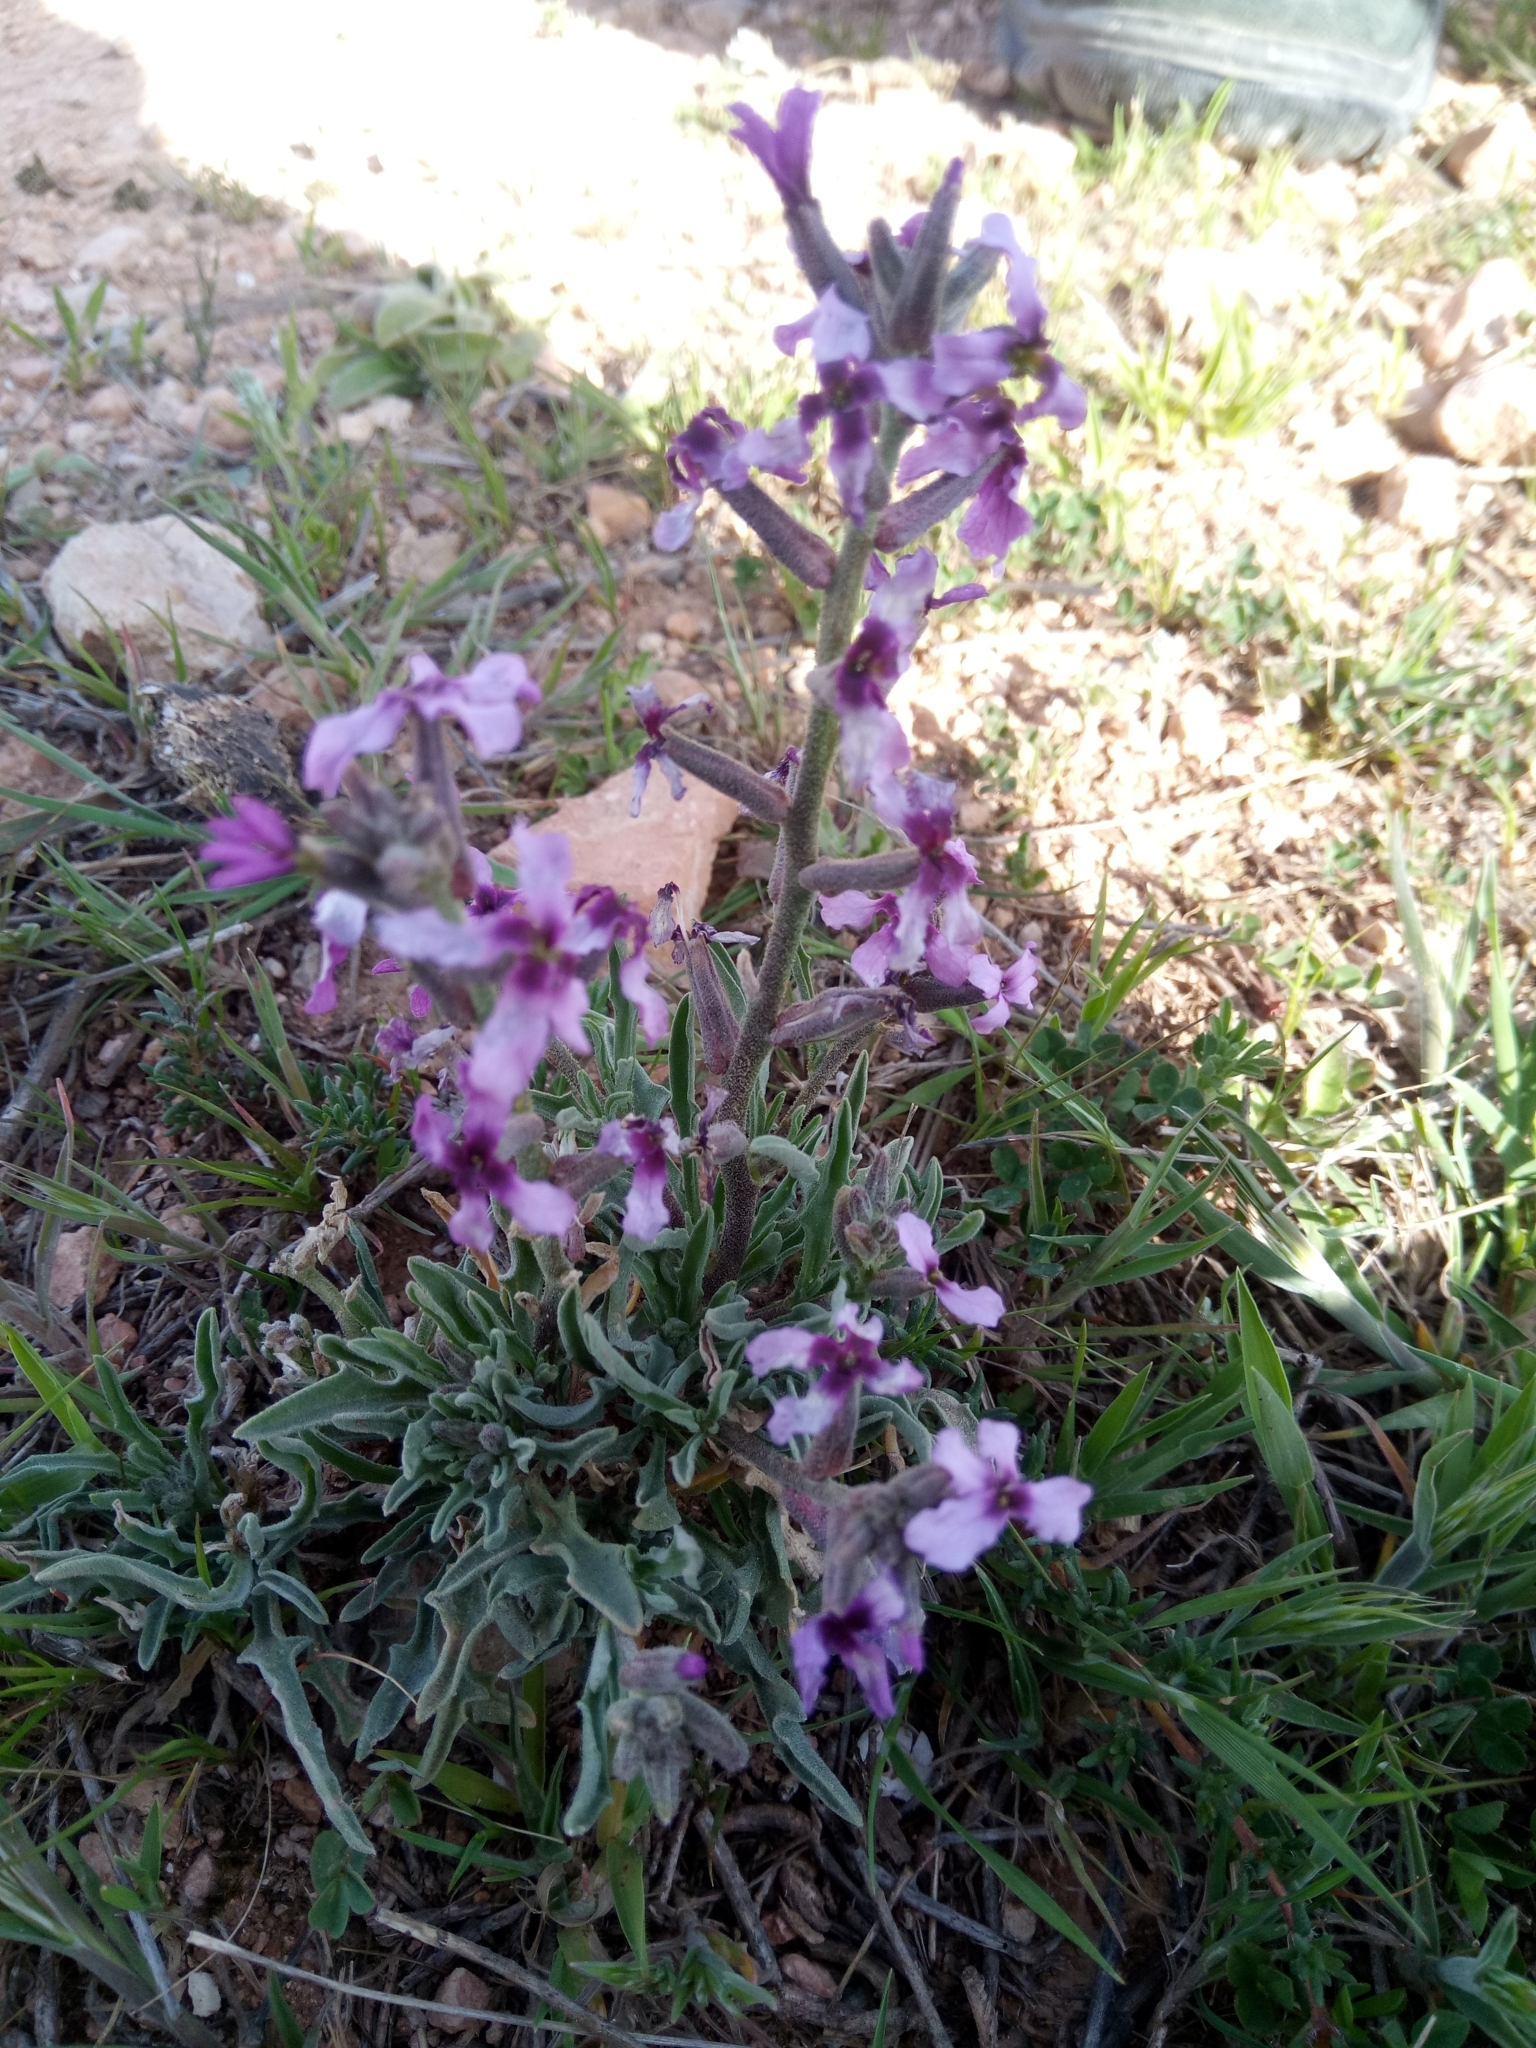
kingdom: Plantae
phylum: Tracheophyta
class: Magnoliopsida
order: Brassicales
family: Brassicaceae
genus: Matthiola
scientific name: Matthiola fruticulosa
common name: Sad stock
